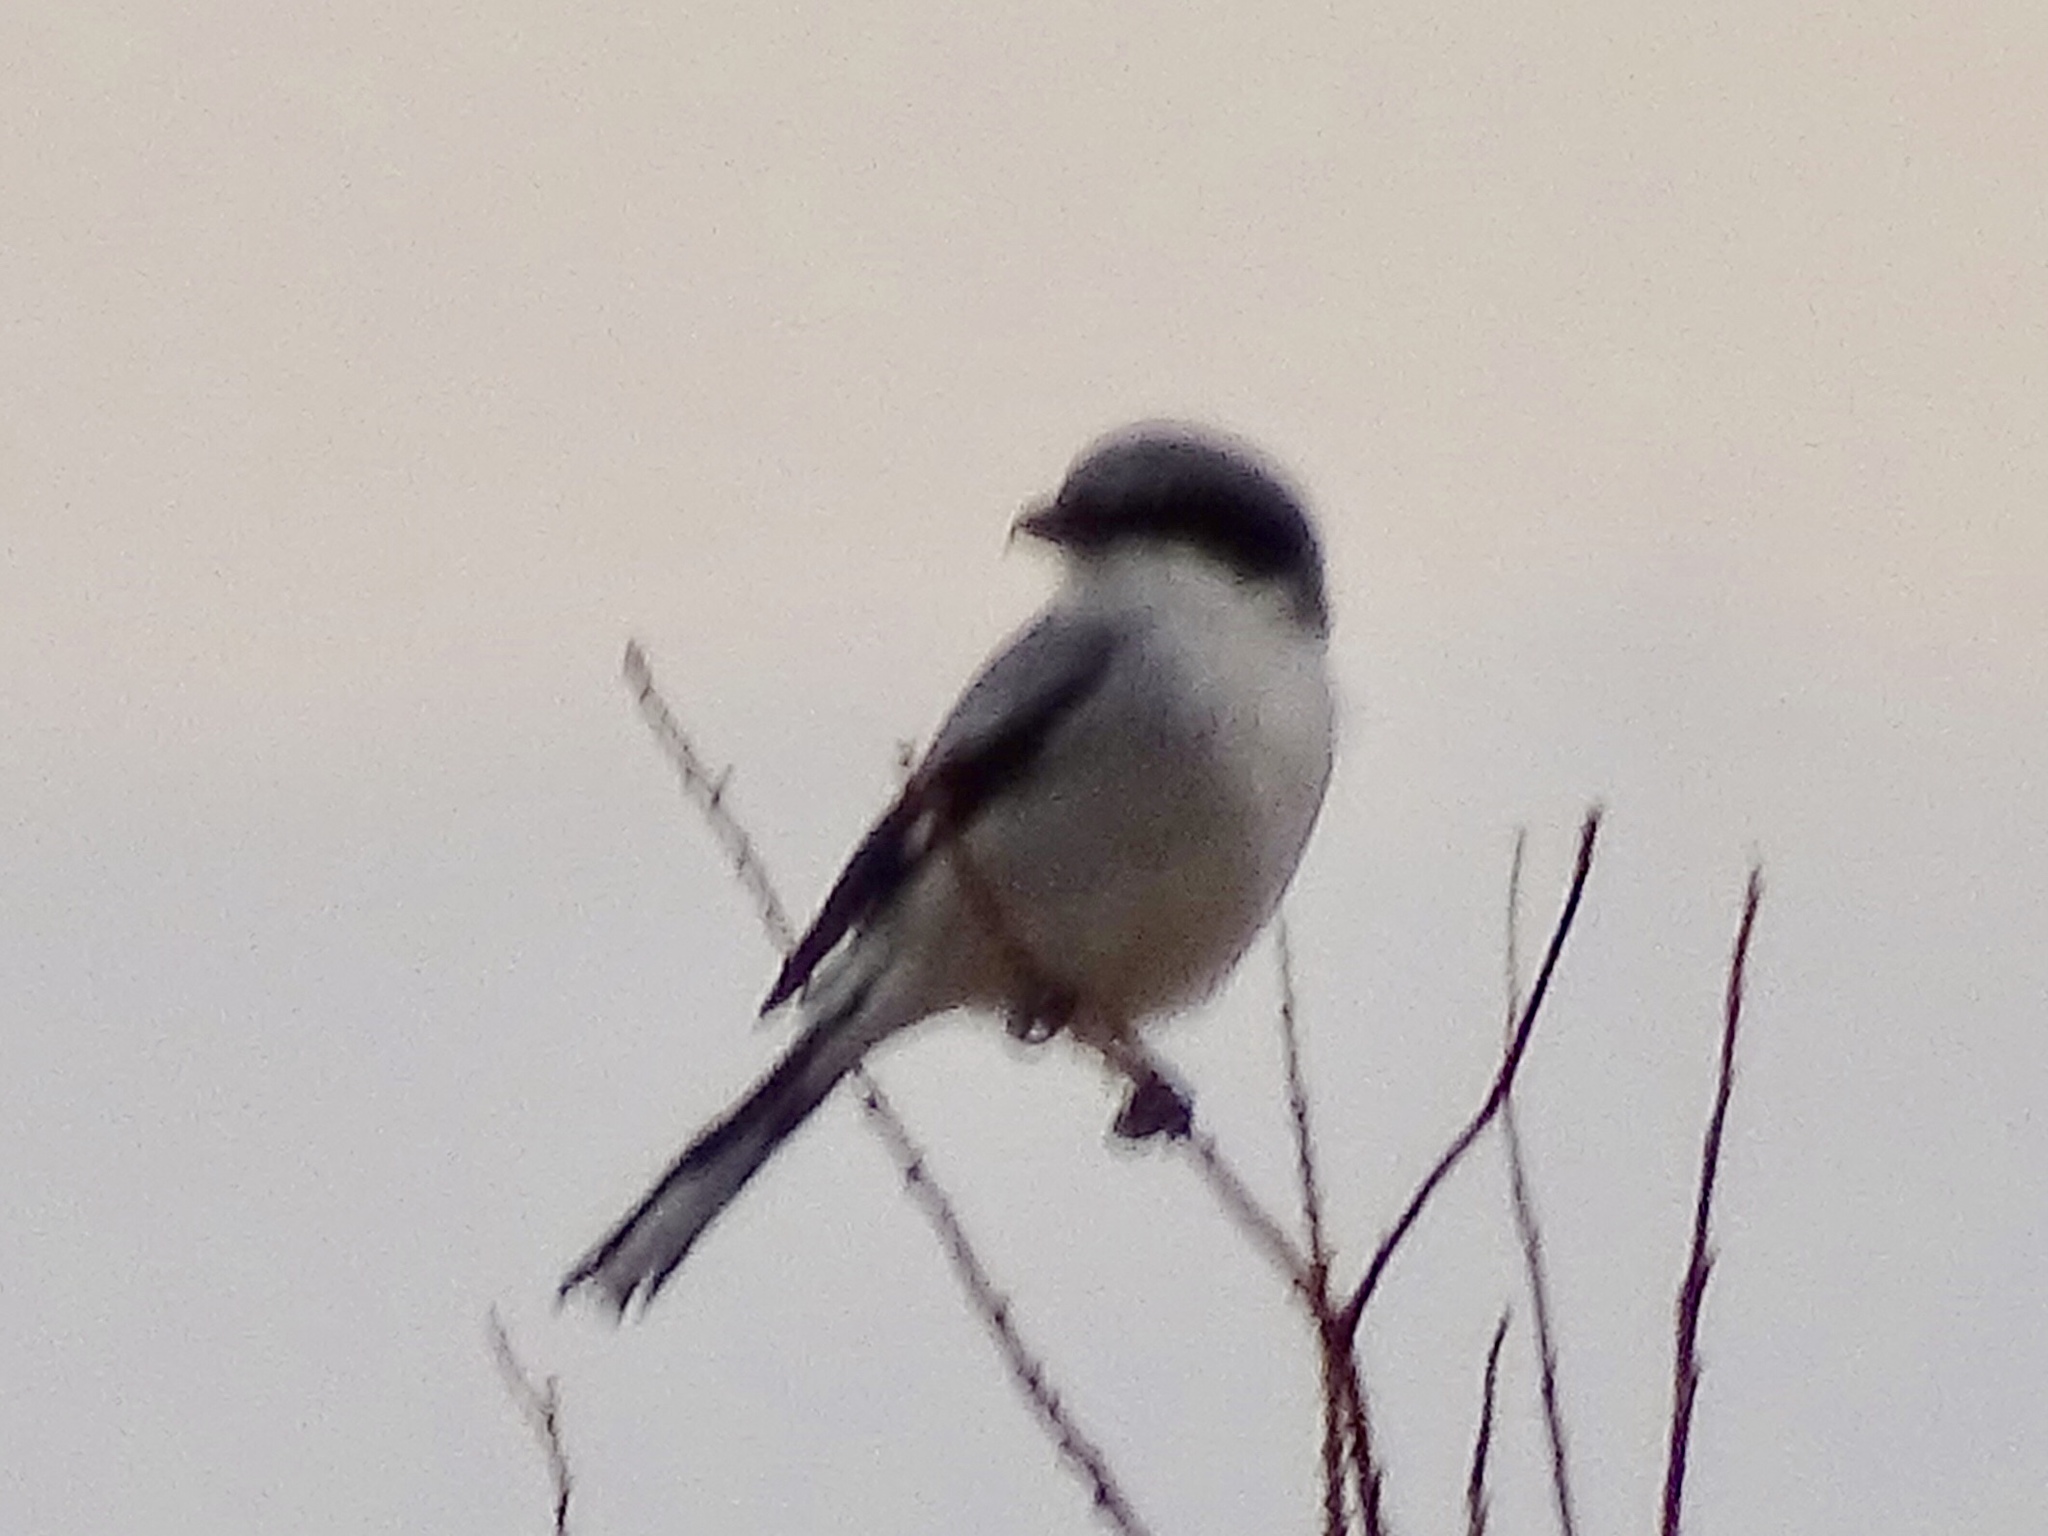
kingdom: Animalia
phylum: Chordata
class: Aves
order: Passeriformes
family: Laniidae
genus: Lanius
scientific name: Lanius ludovicianus
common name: Loggerhead shrike
